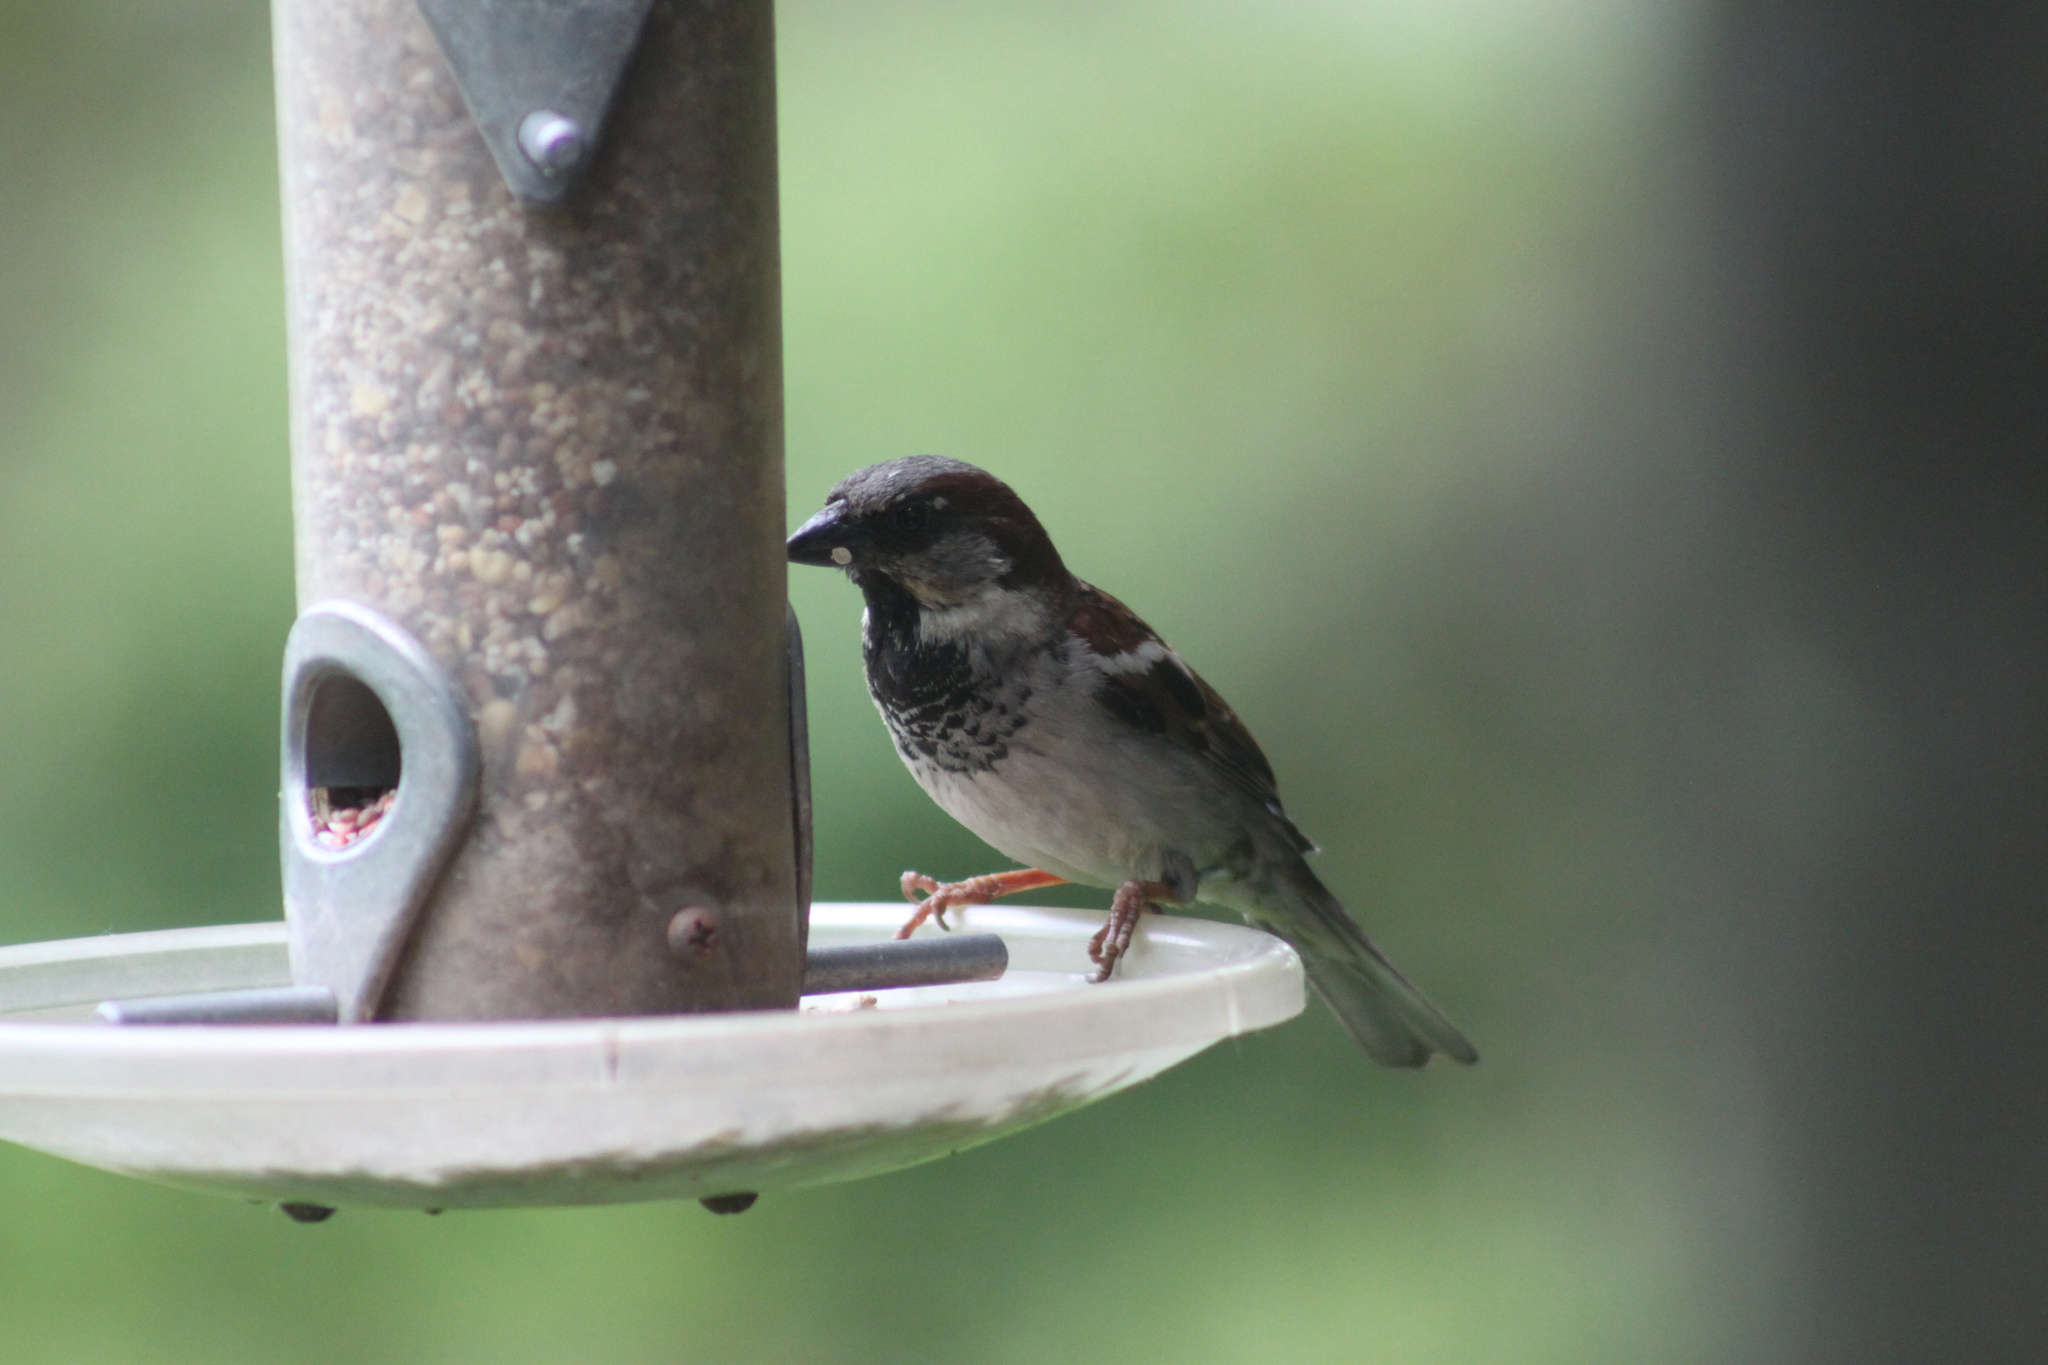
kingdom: Animalia
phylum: Chordata
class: Aves
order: Passeriformes
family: Passeridae
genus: Passer
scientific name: Passer domesticus
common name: House sparrow
